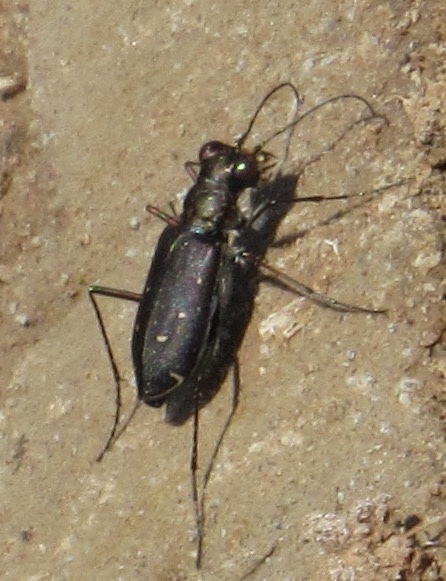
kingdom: Animalia
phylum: Arthropoda
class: Insecta
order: Coleoptera
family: Carabidae
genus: Cicindela
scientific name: Cicindela punctulata
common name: Punctured tiger beetle
